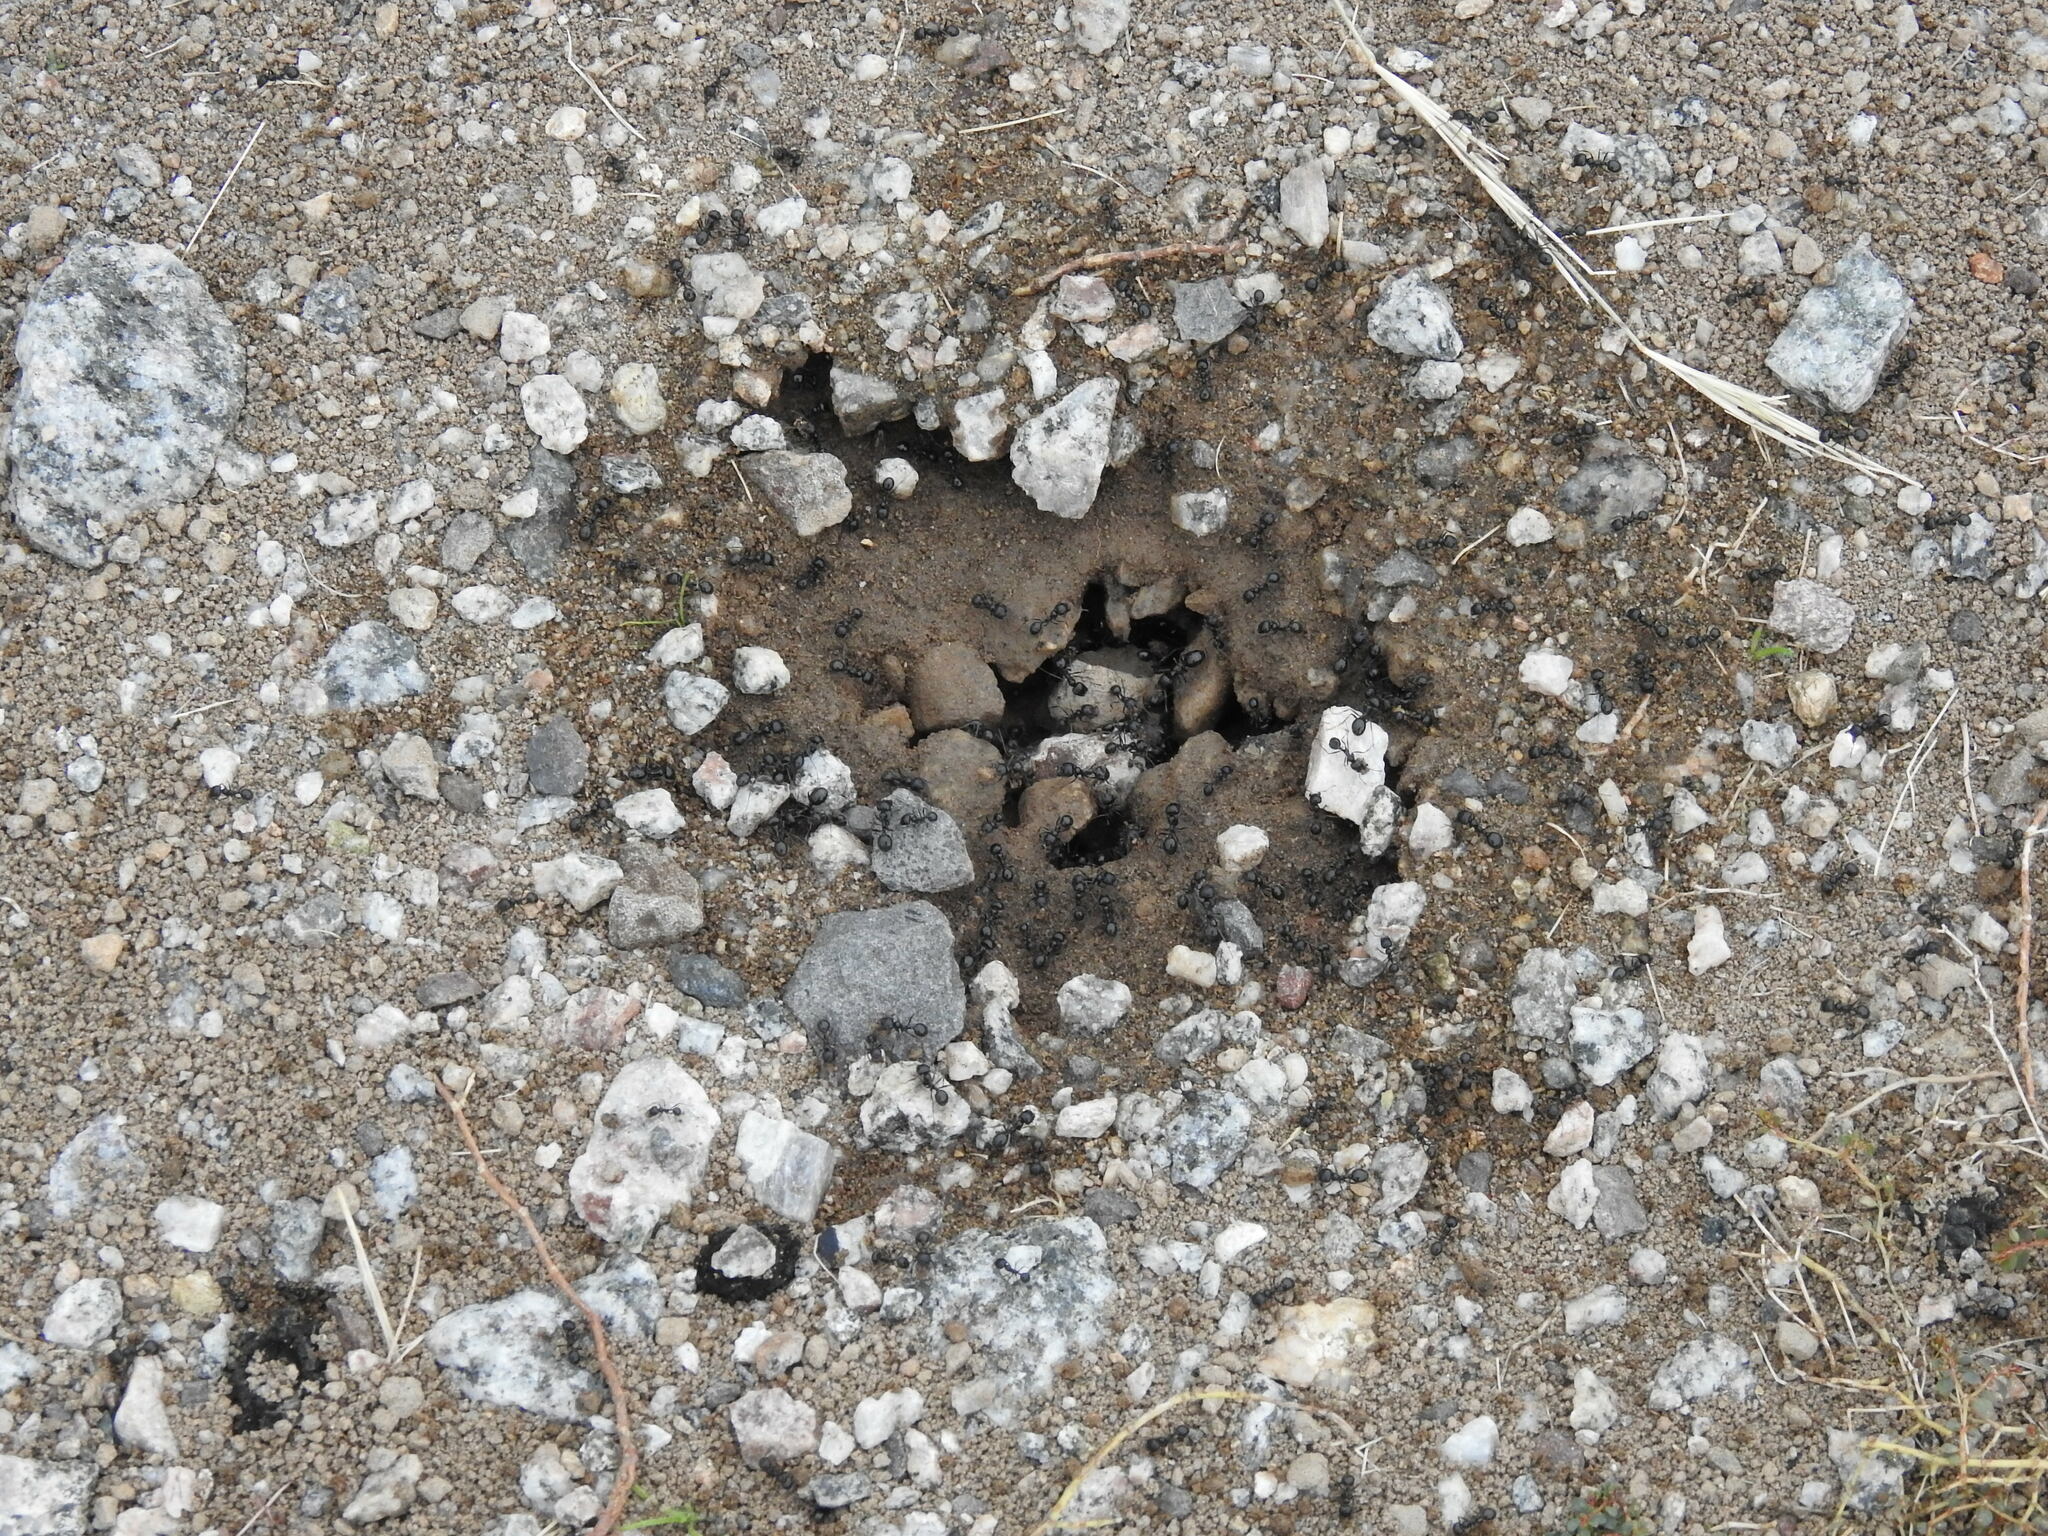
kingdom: Animalia
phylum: Arthropoda
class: Insecta
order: Hymenoptera
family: Formicidae
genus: Messor
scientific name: Messor pergandei
